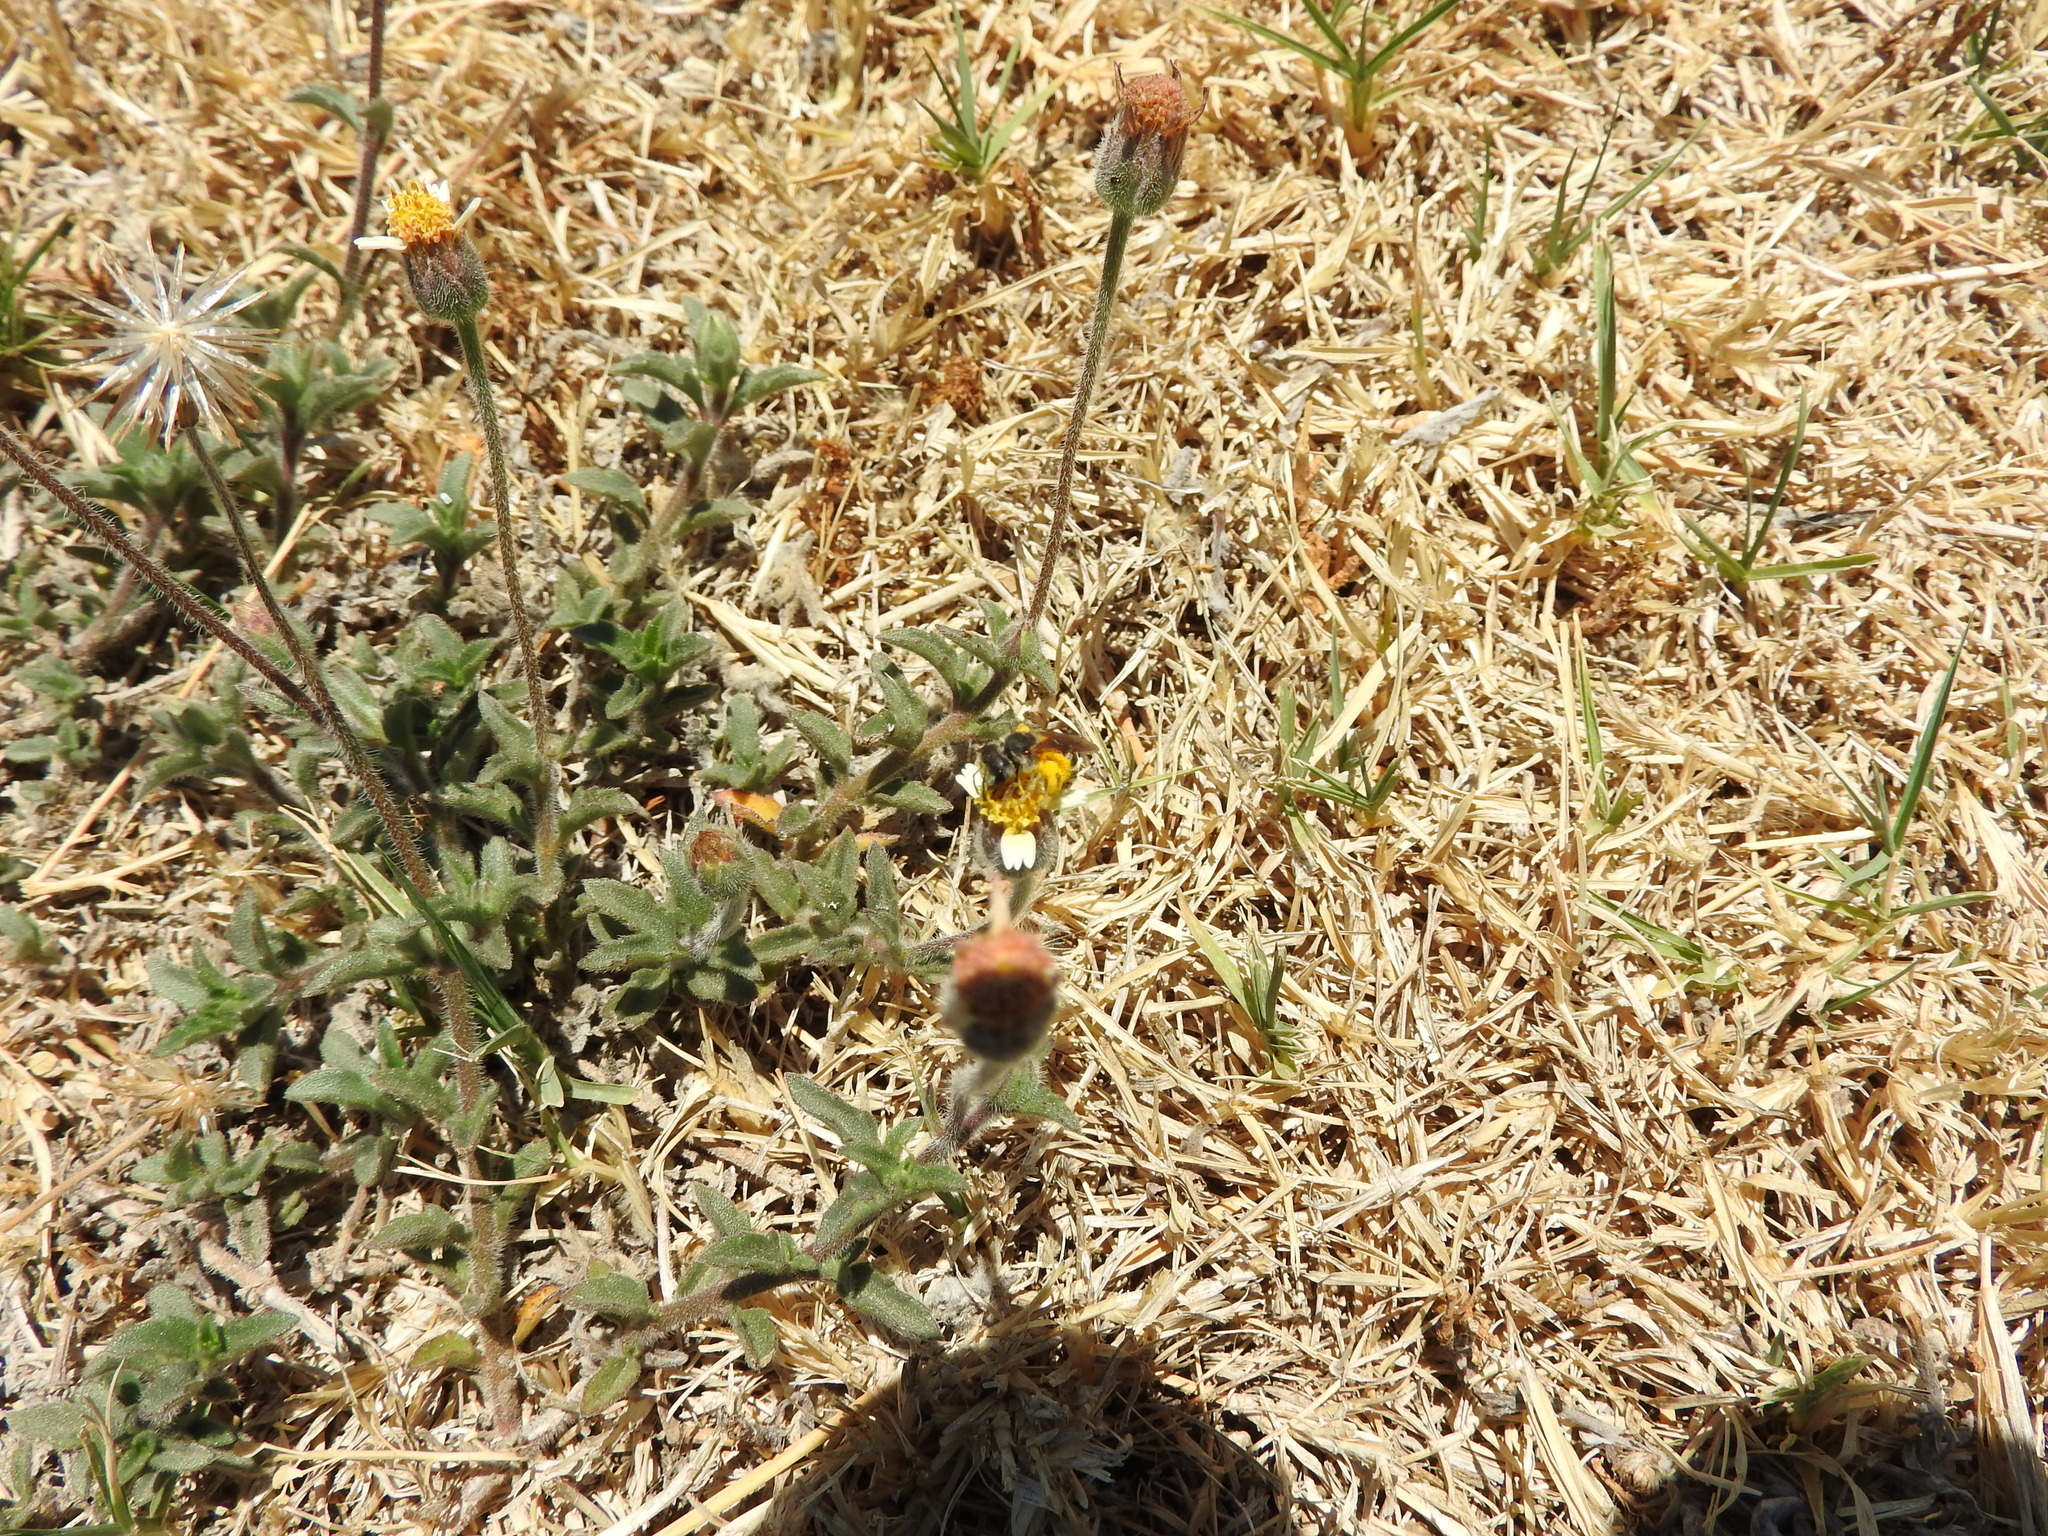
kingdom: Plantae
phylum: Tracheophyta
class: Magnoliopsida
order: Asterales
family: Asteraceae
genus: Tridax
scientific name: Tridax procumbens
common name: Coatbuttons
